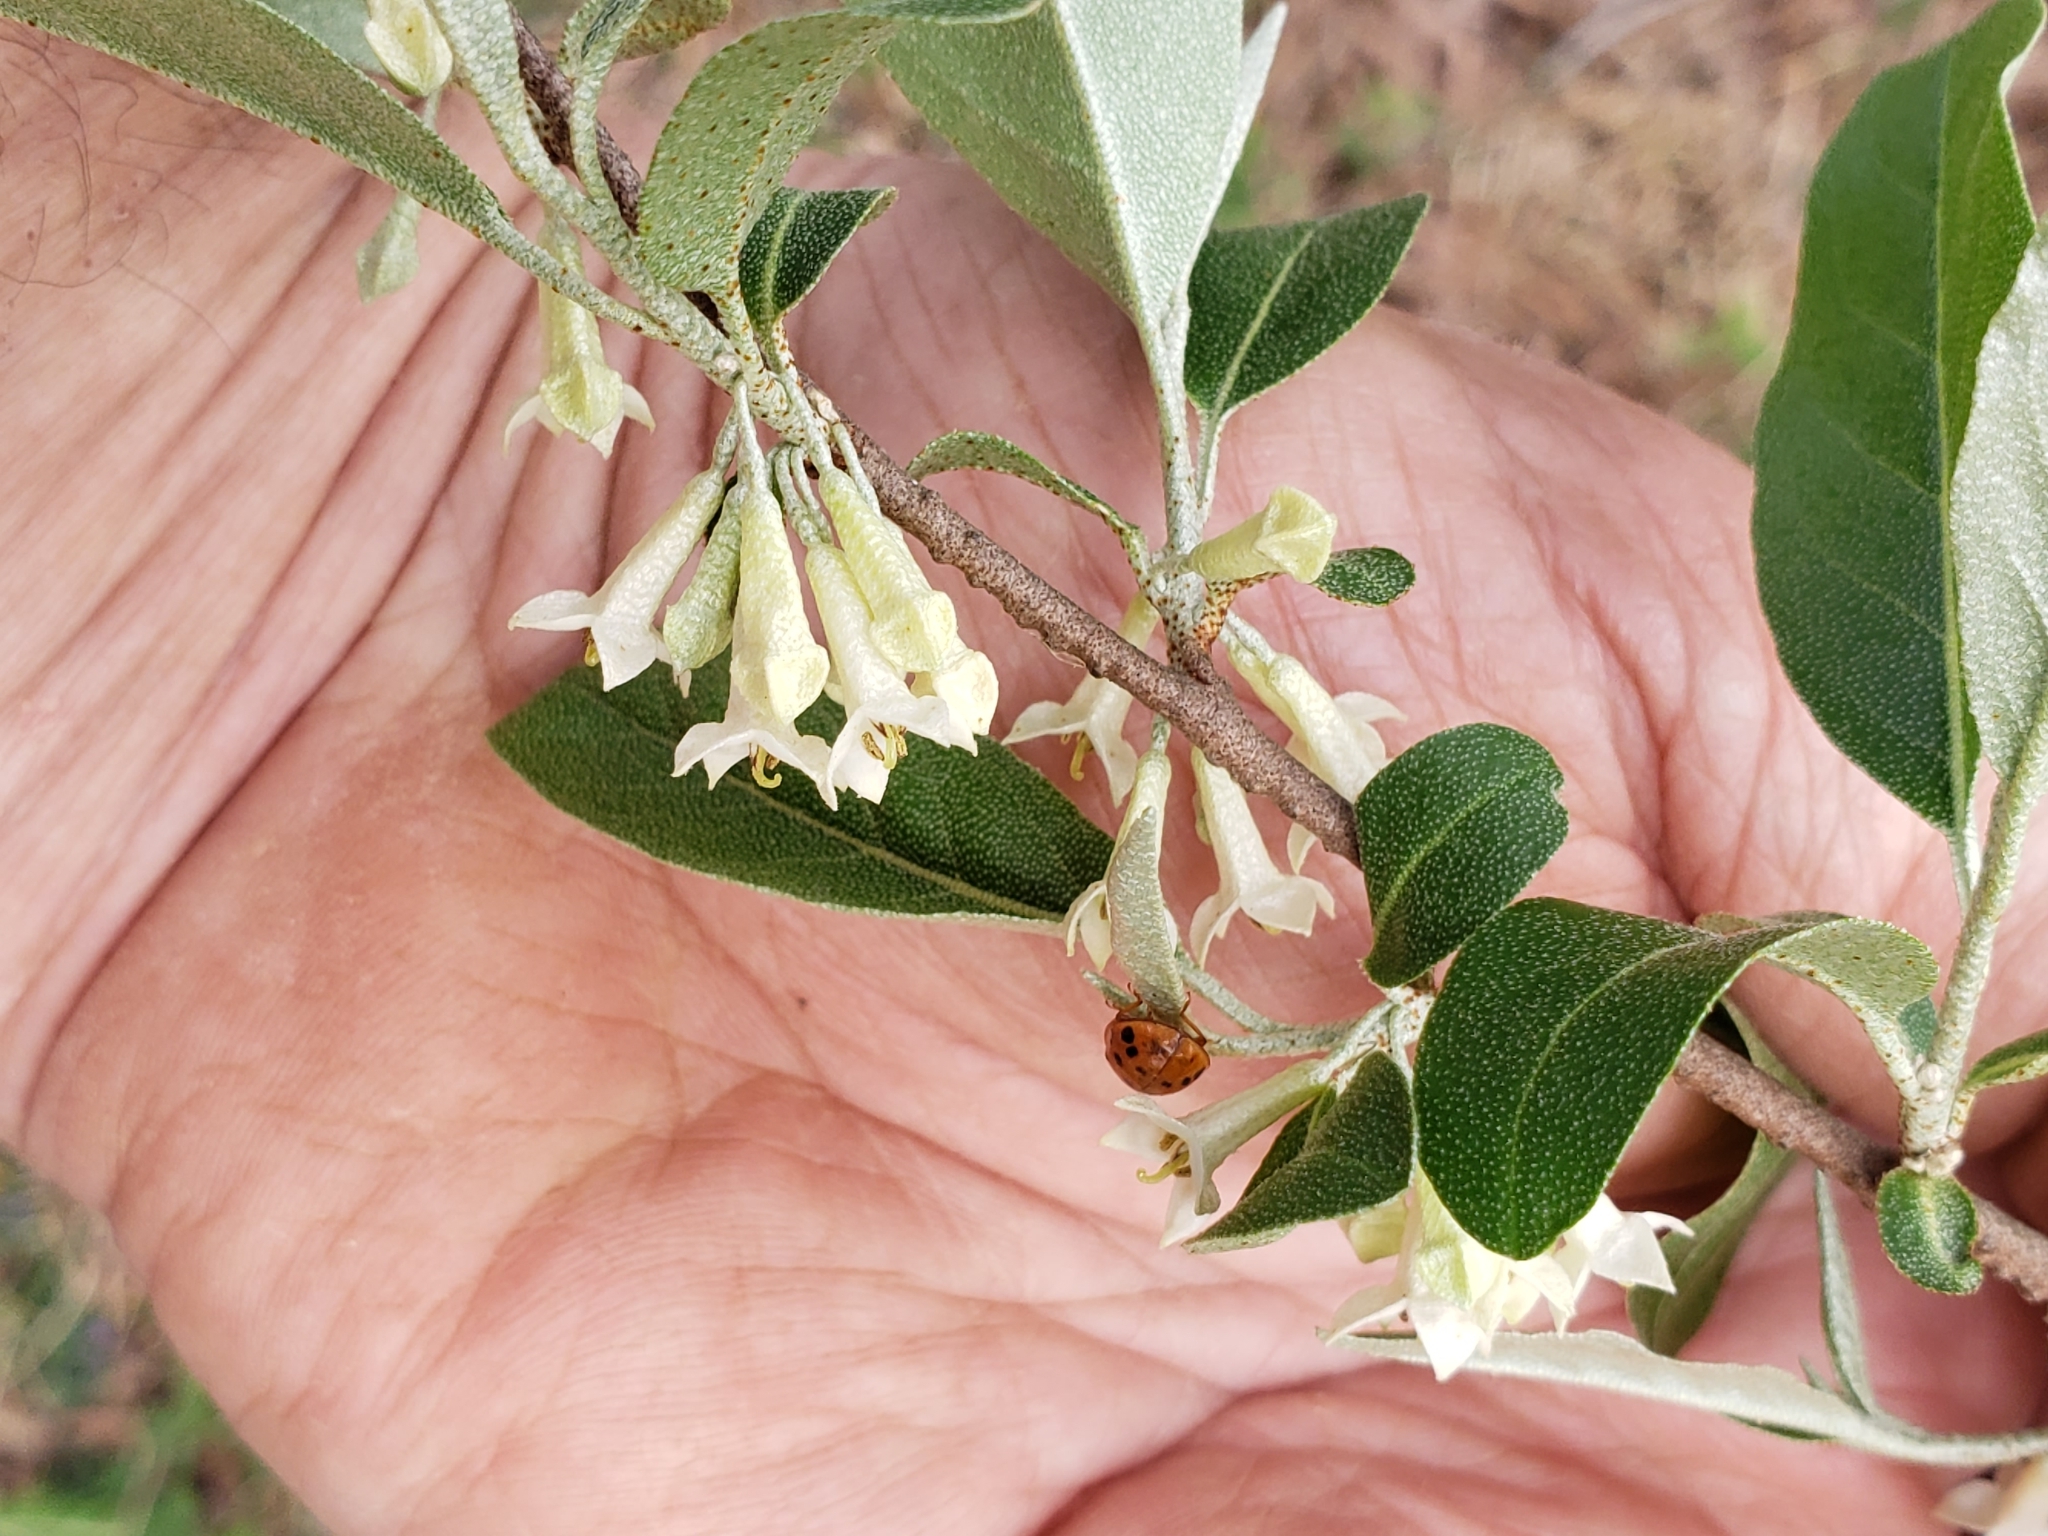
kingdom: Plantae
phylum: Tracheophyta
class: Magnoliopsida
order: Rosales
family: Elaeagnaceae
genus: Elaeagnus
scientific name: Elaeagnus umbellata
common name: Autumn olive
